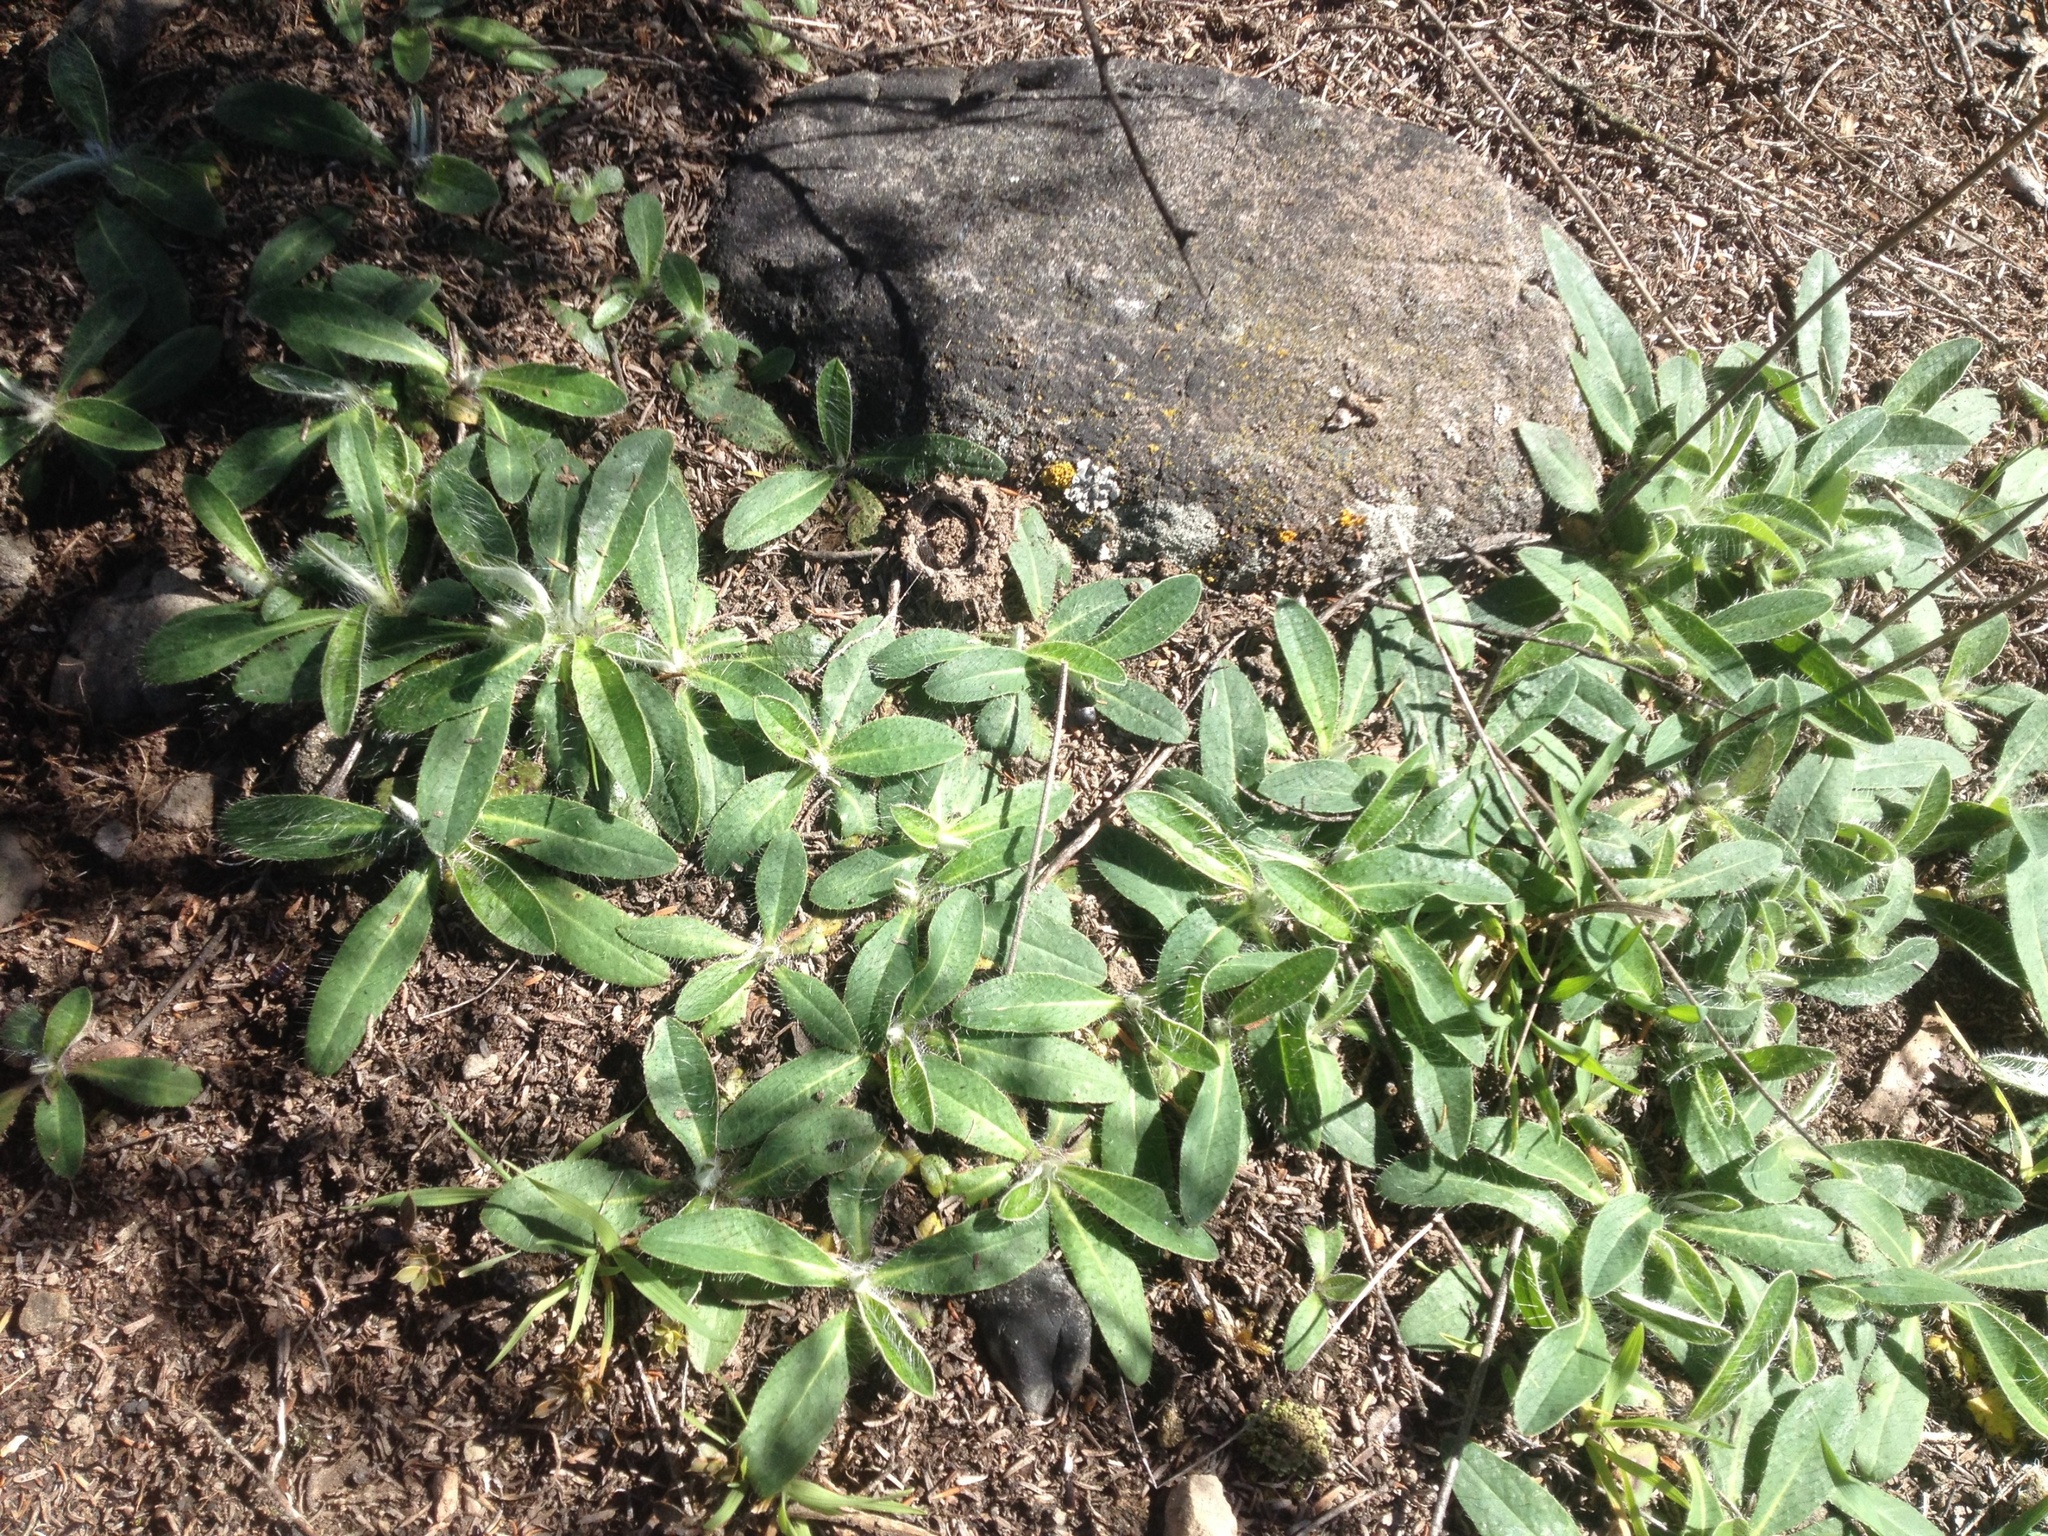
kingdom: Plantae
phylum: Tracheophyta
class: Magnoliopsida
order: Asterales
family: Asteraceae
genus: Pilosella
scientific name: Pilosella officinarum
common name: Mouse-ear hawkweed
